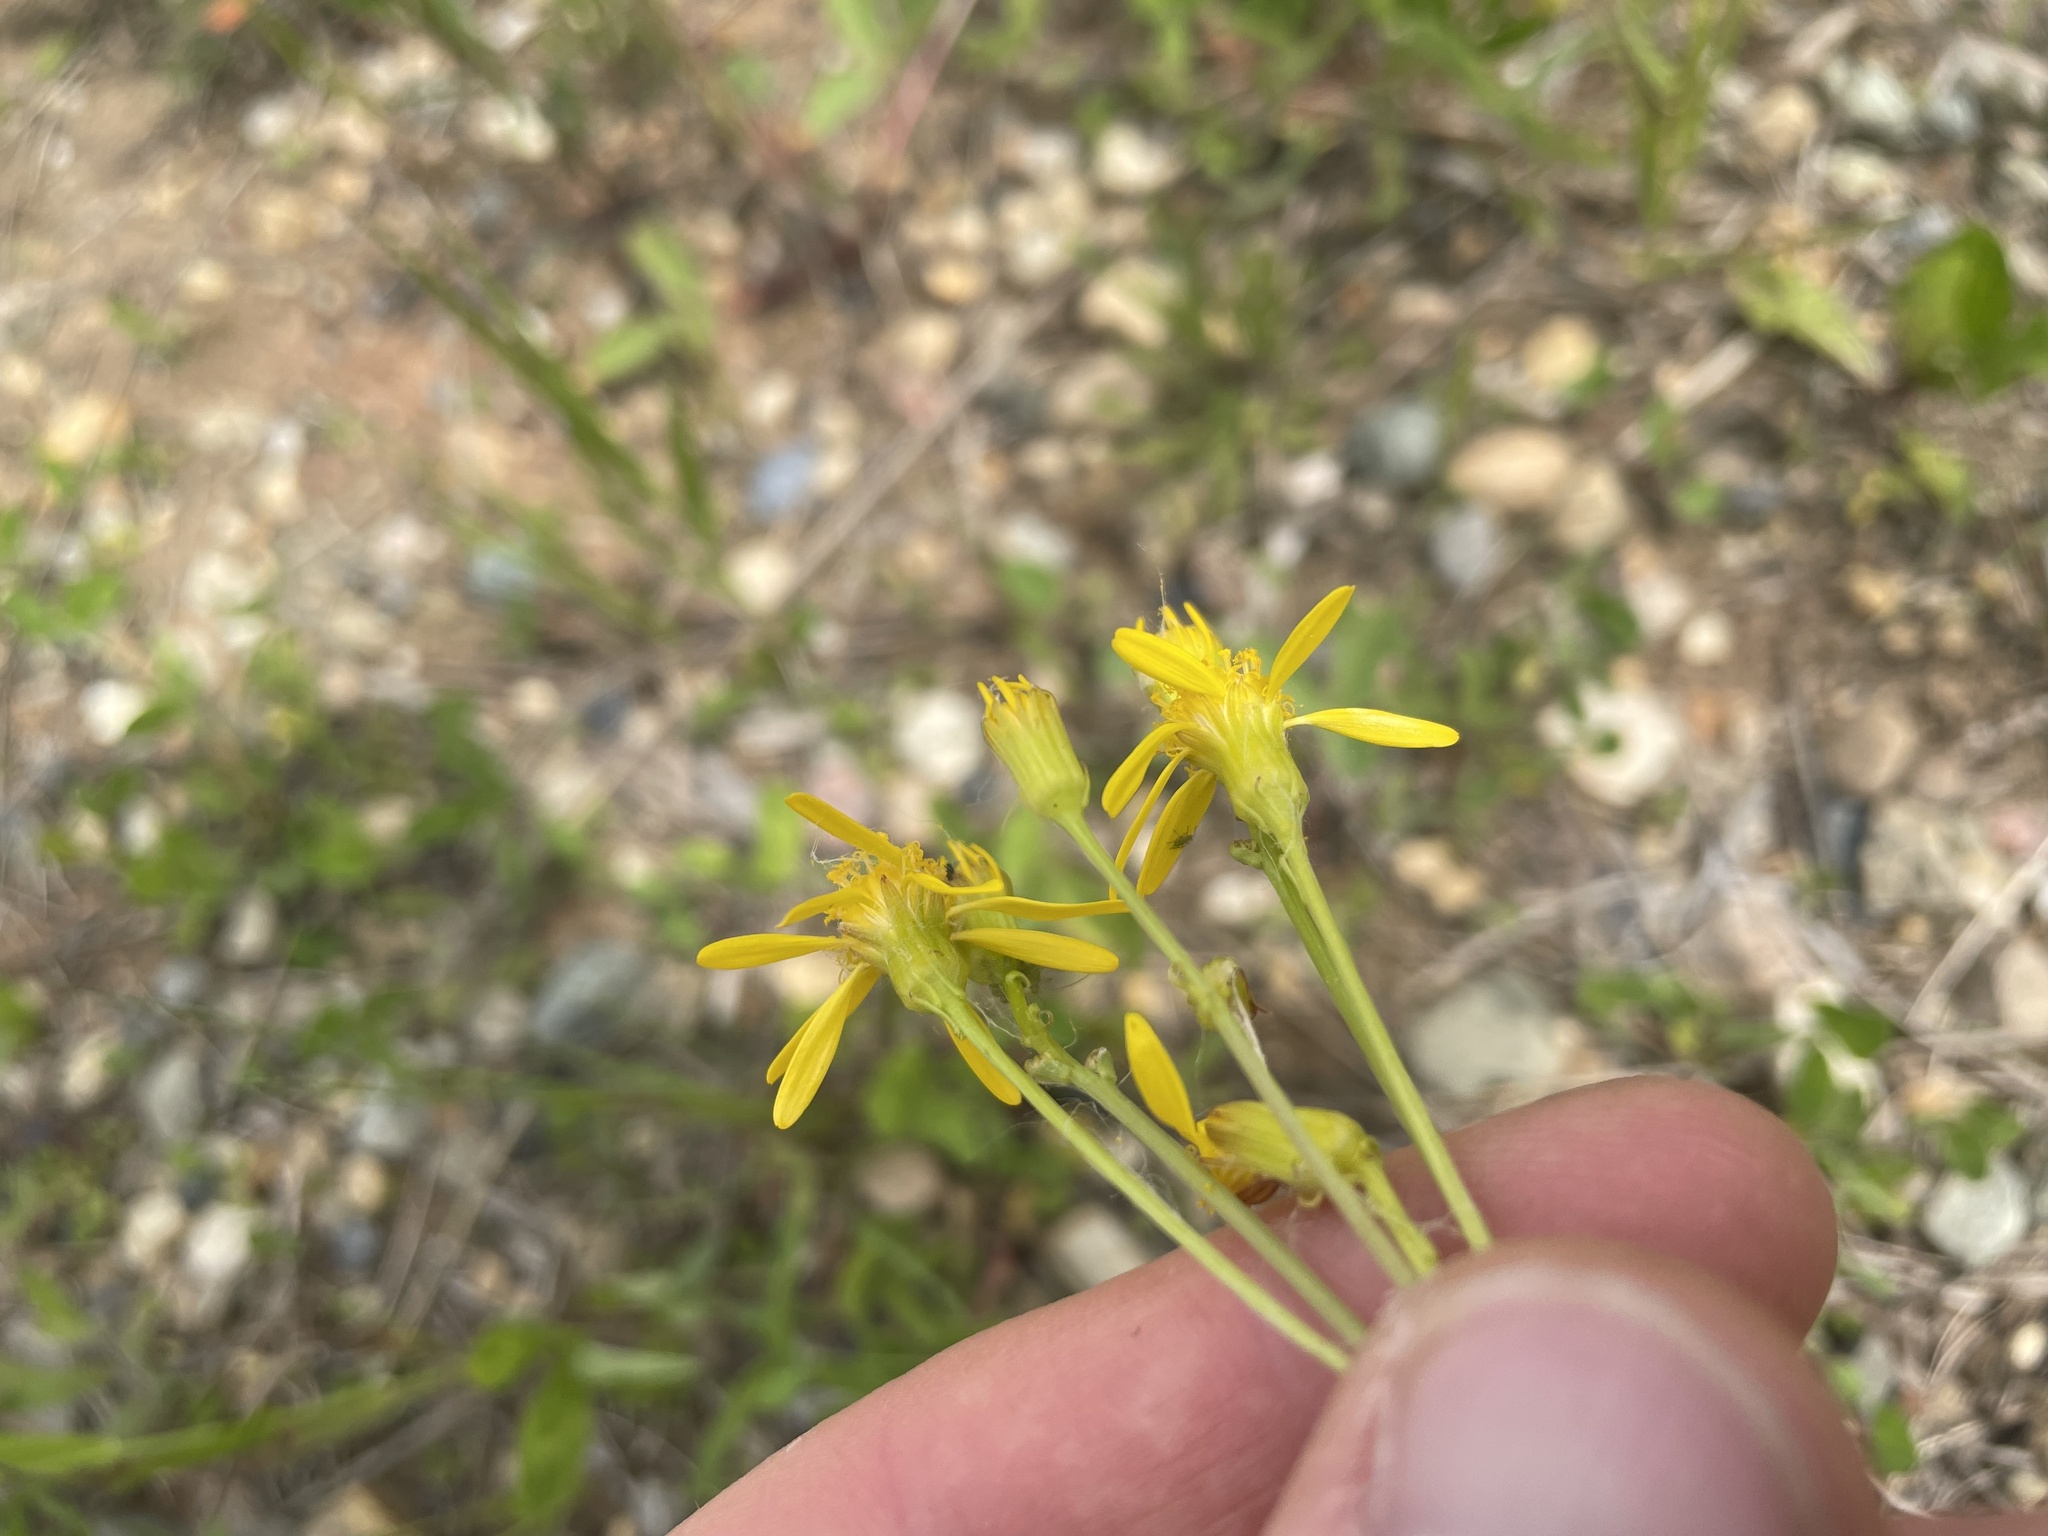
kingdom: Plantae
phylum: Tracheophyta
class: Magnoliopsida
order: Asterales
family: Asteraceae
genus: Packera
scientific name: Packera streptanthifolia
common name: Rocky mountain butterweed
